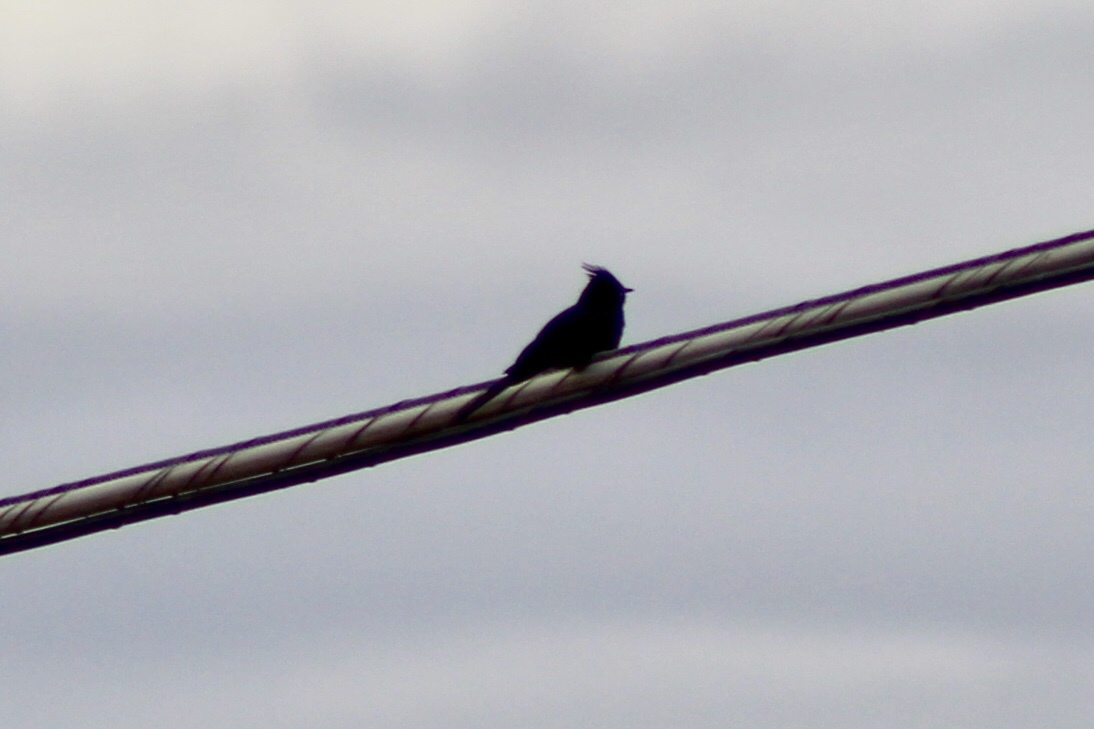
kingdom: Animalia
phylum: Chordata
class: Aves
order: Passeriformes
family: Ptilogonatidae
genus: Phainopepla
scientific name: Phainopepla nitens
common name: Phainopepla
